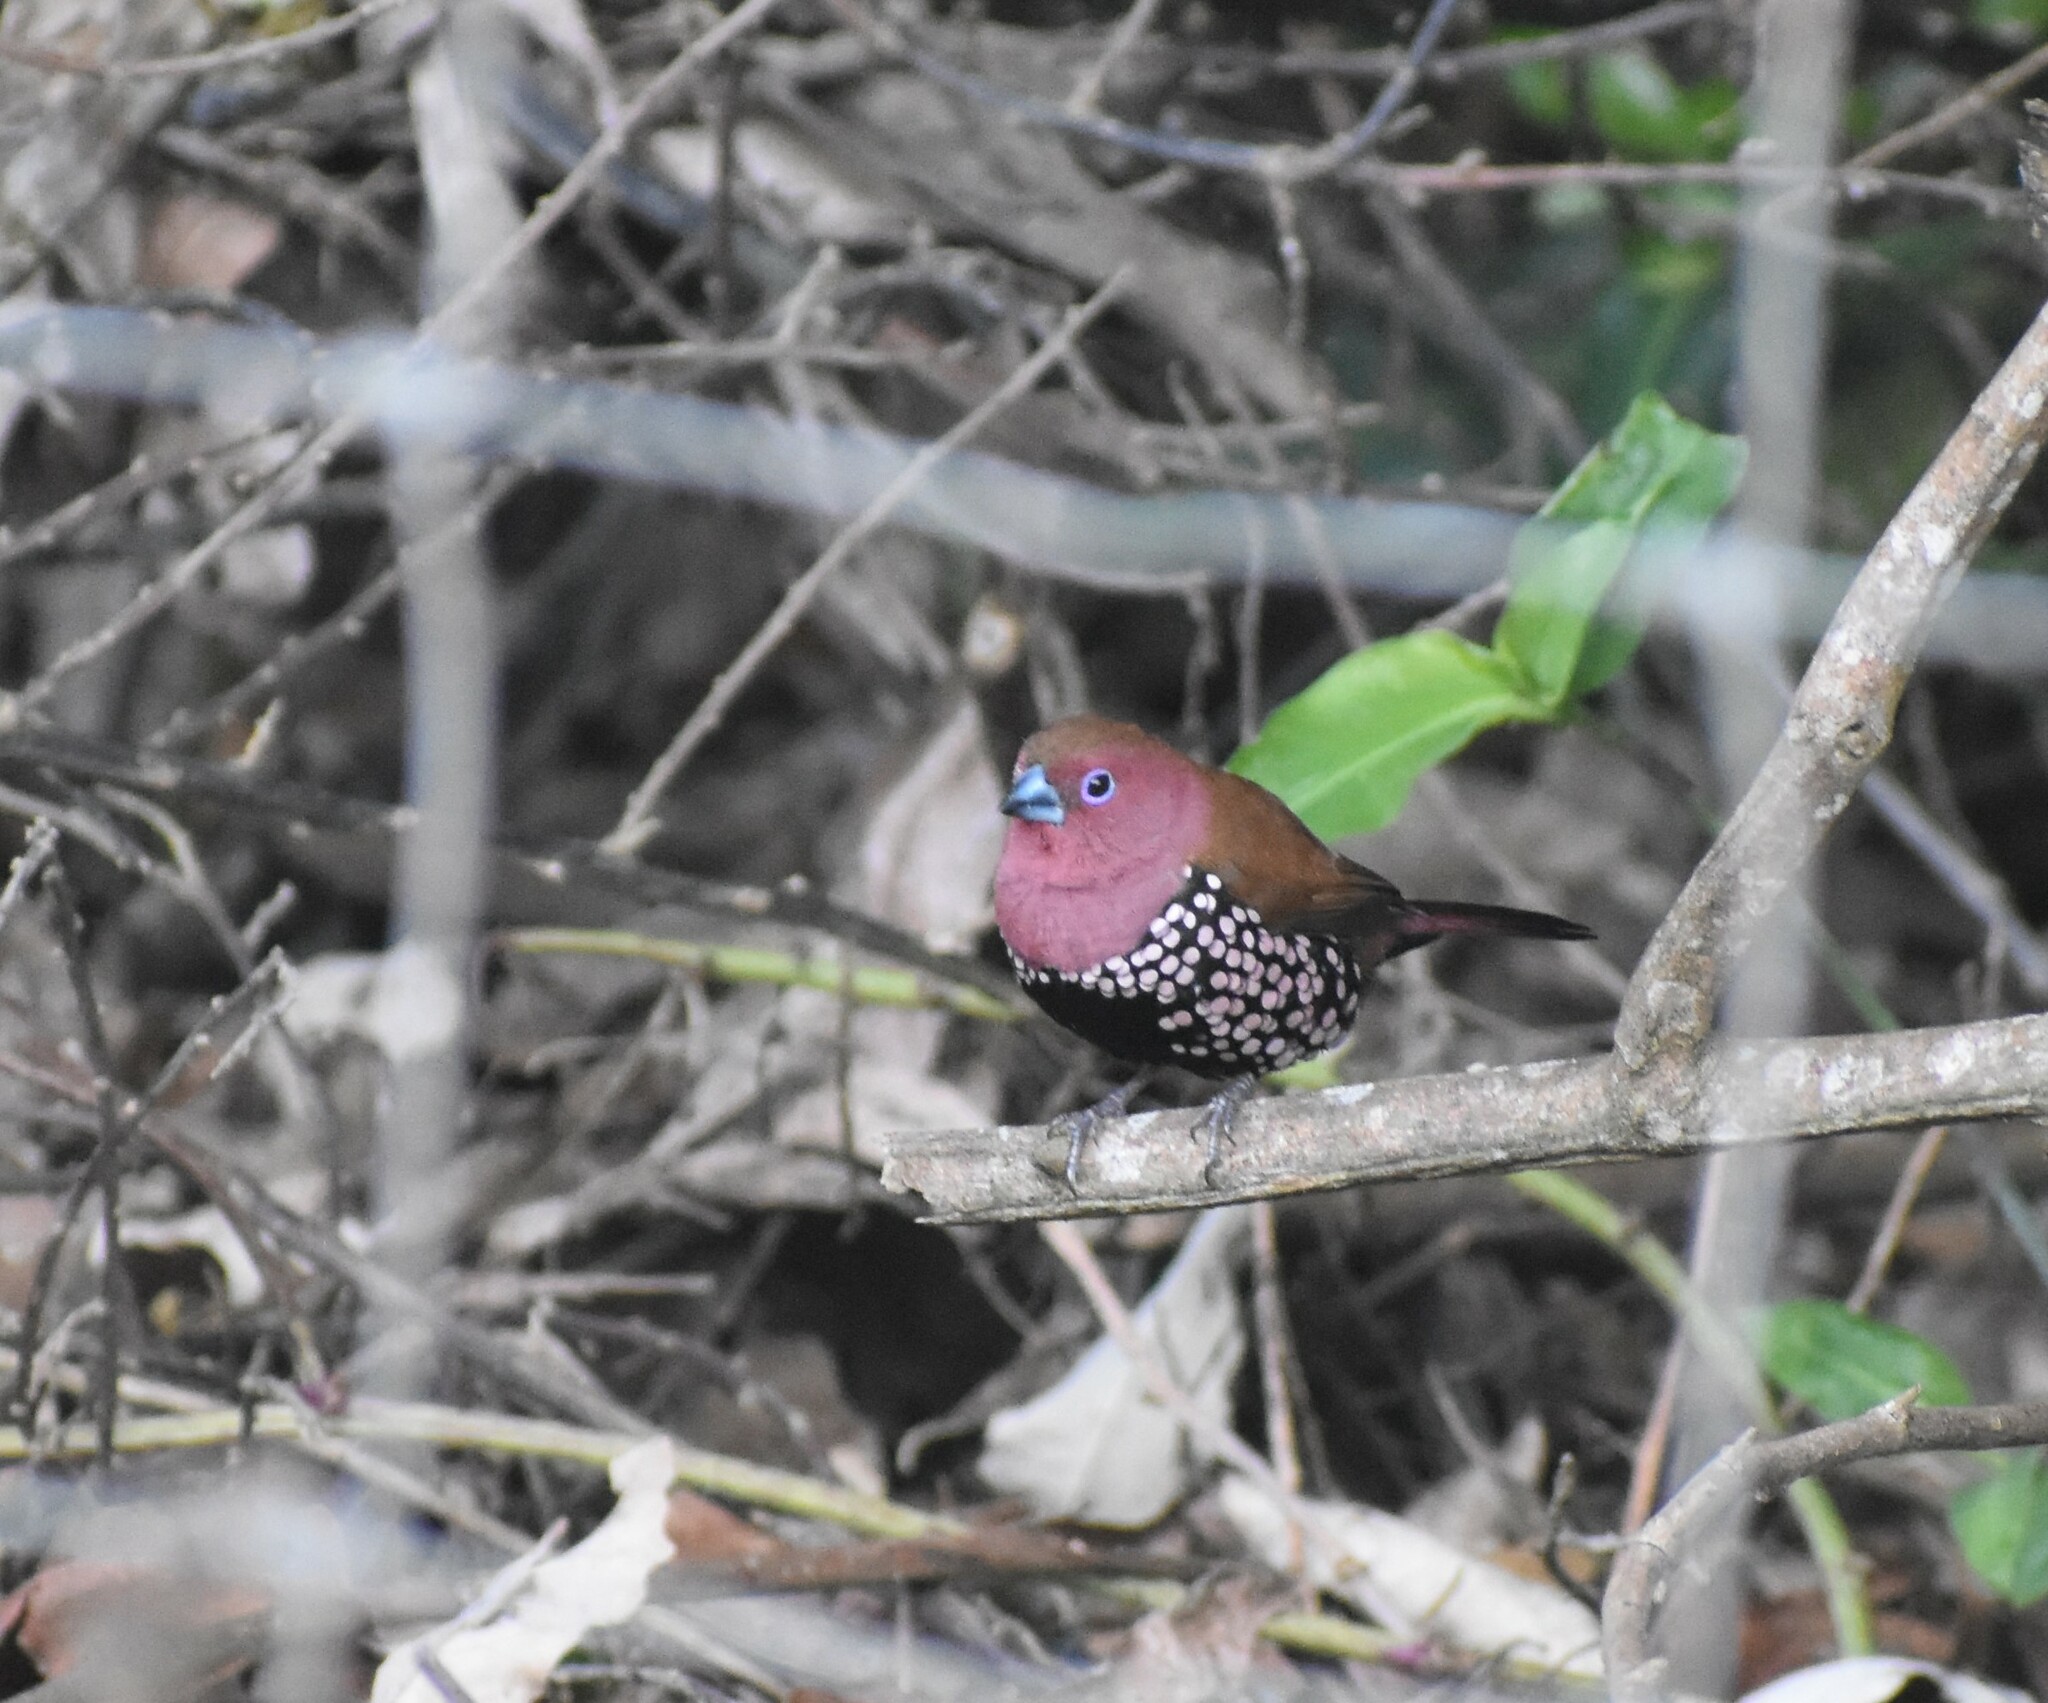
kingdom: Animalia
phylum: Chordata
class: Aves
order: Passeriformes
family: Estrildidae
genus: Hypargos
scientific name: Hypargos margaritatus
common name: Pink-throated twinspot
